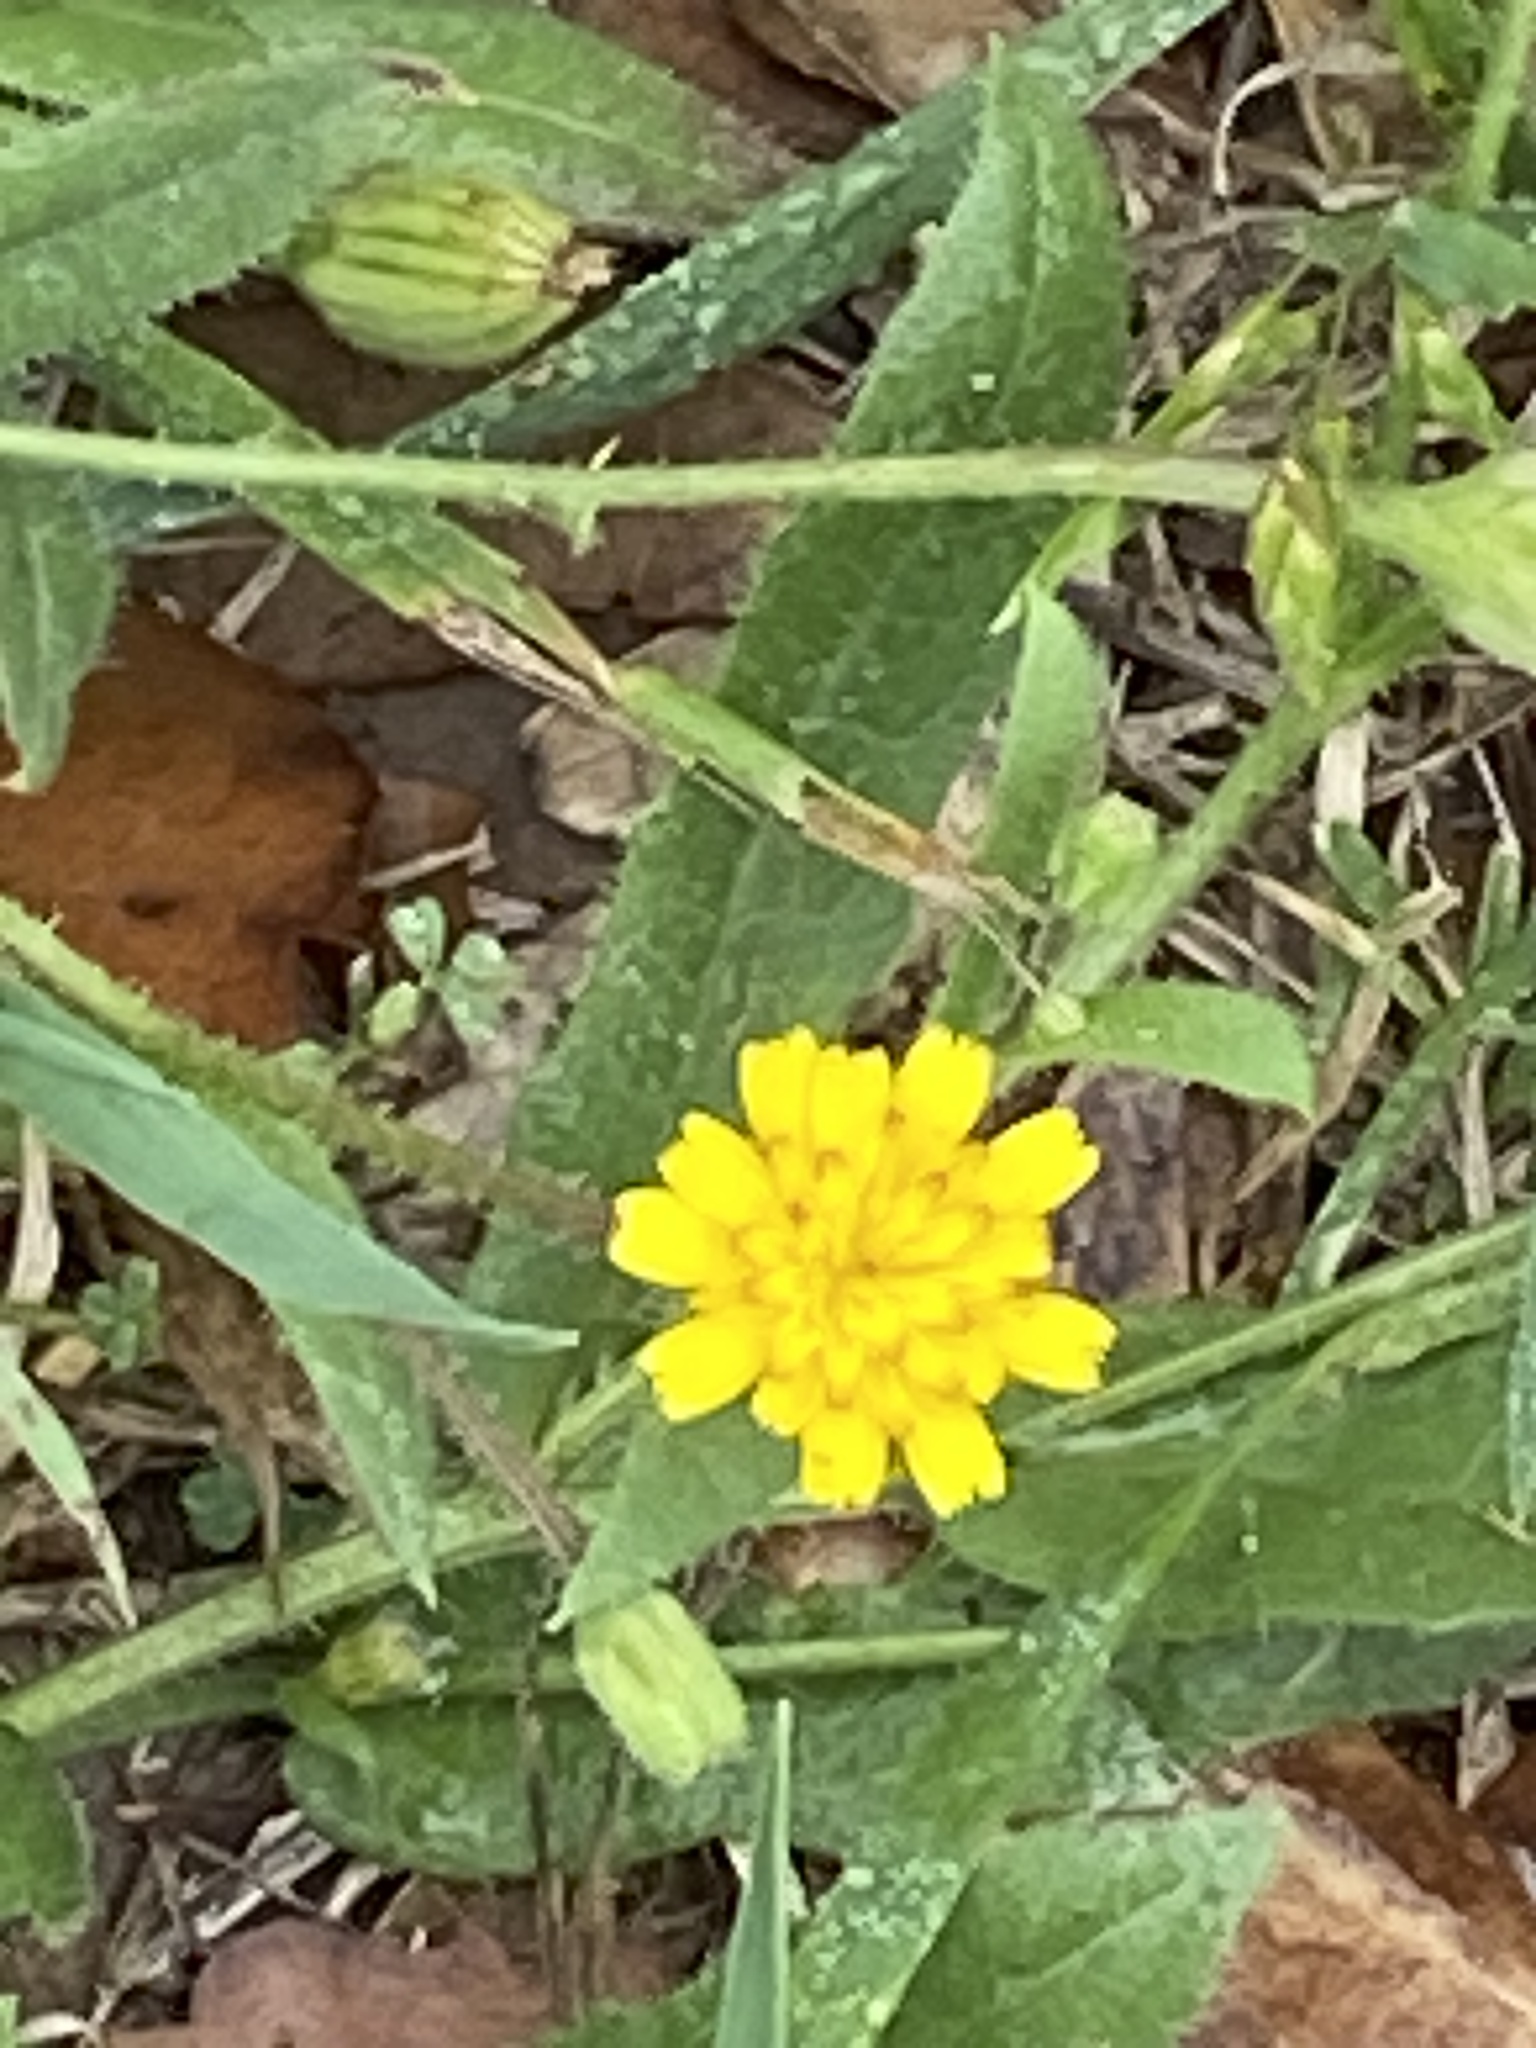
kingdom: Plantae
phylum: Tracheophyta
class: Magnoliopsida
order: Asterales
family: Asteraceae
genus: Hedypnois
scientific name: Hedypnois rhagadioloides
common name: Cretan weed
